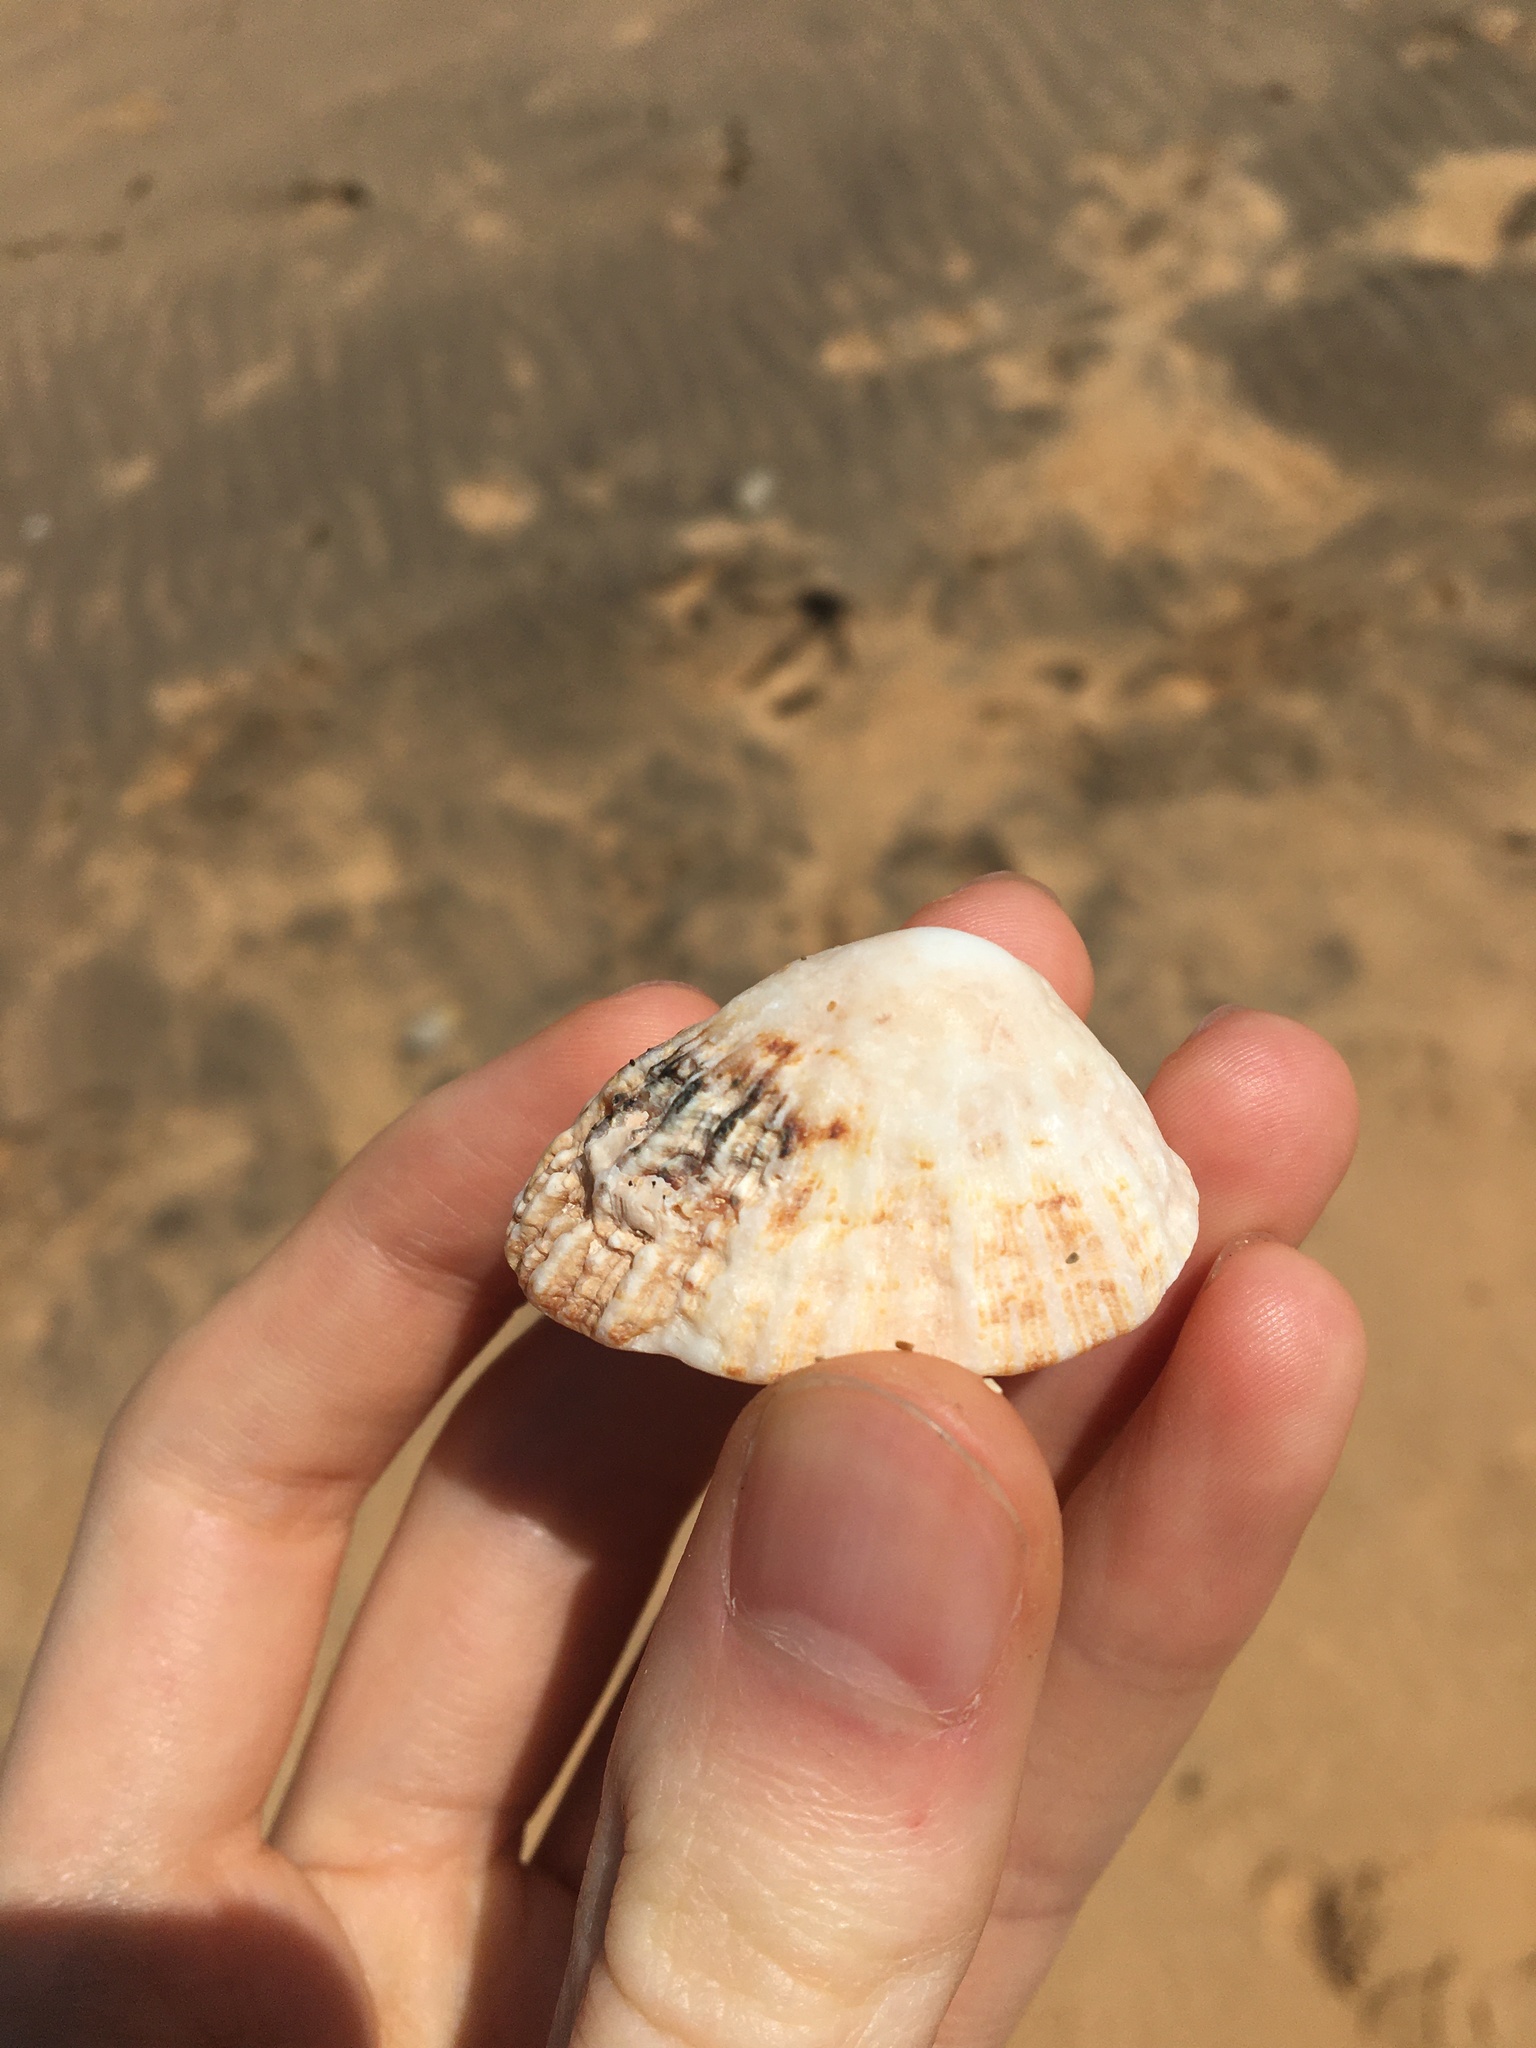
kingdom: Animalia
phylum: Mollusca
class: Gastropoda
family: Patellidae
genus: Scutellastra
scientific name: Scutellastra peronii
